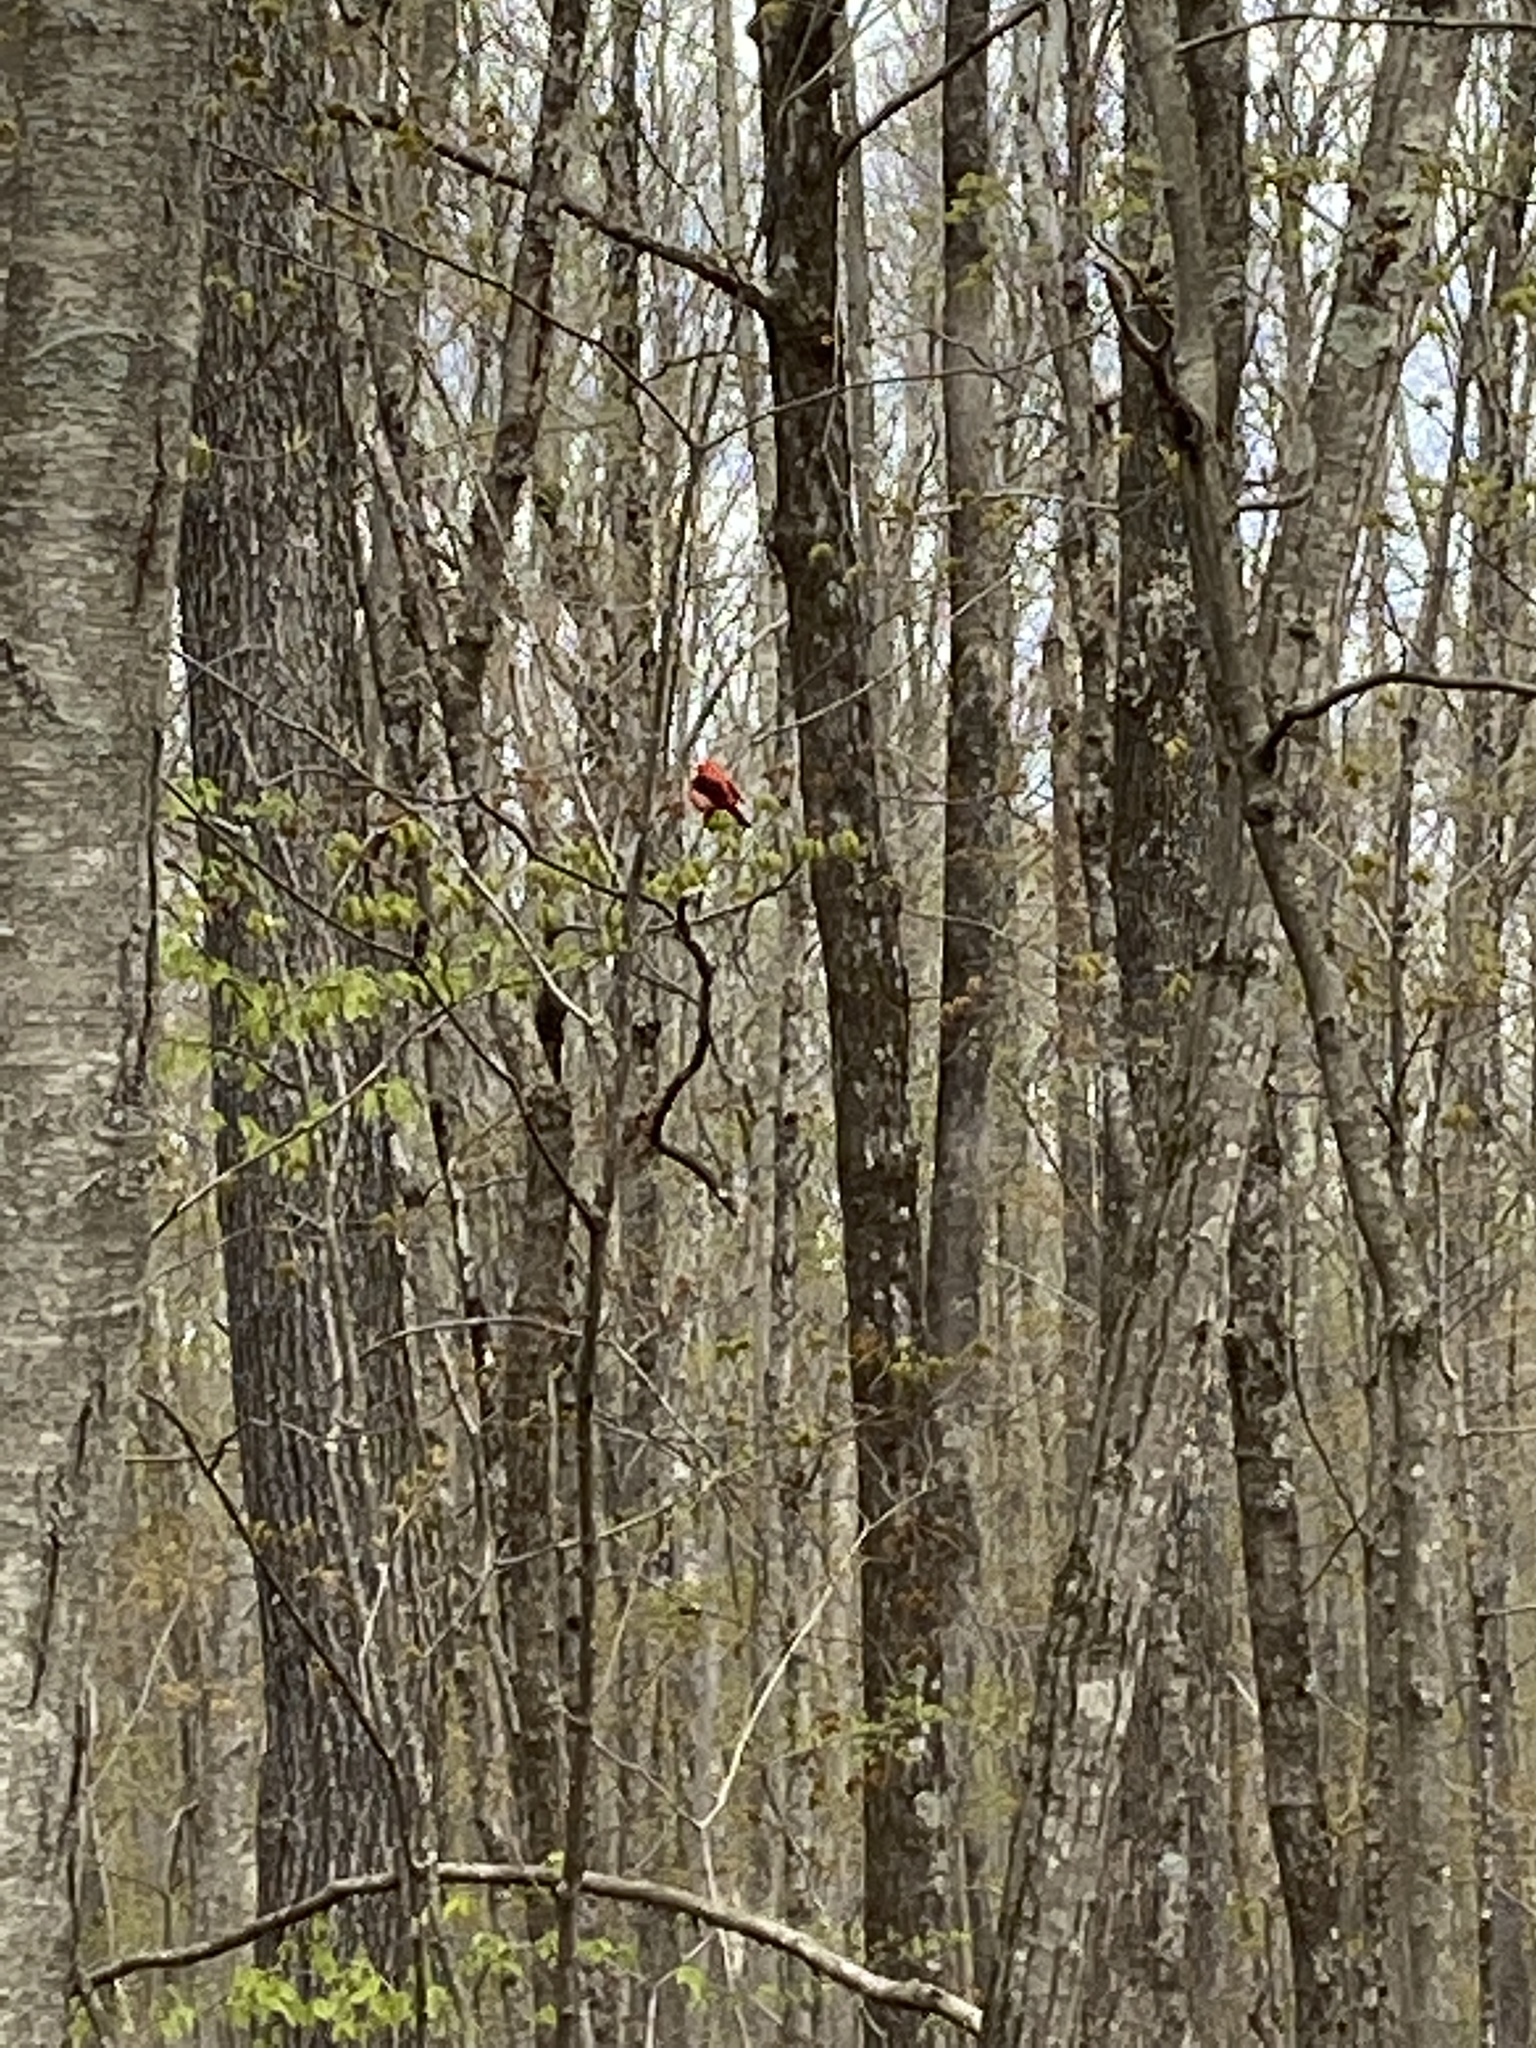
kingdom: Animalia
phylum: Chordata
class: Aves
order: Passeriformes
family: Cardinalidae
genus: Piranga
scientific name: Piranga olivacea
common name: Scarlet tanager
